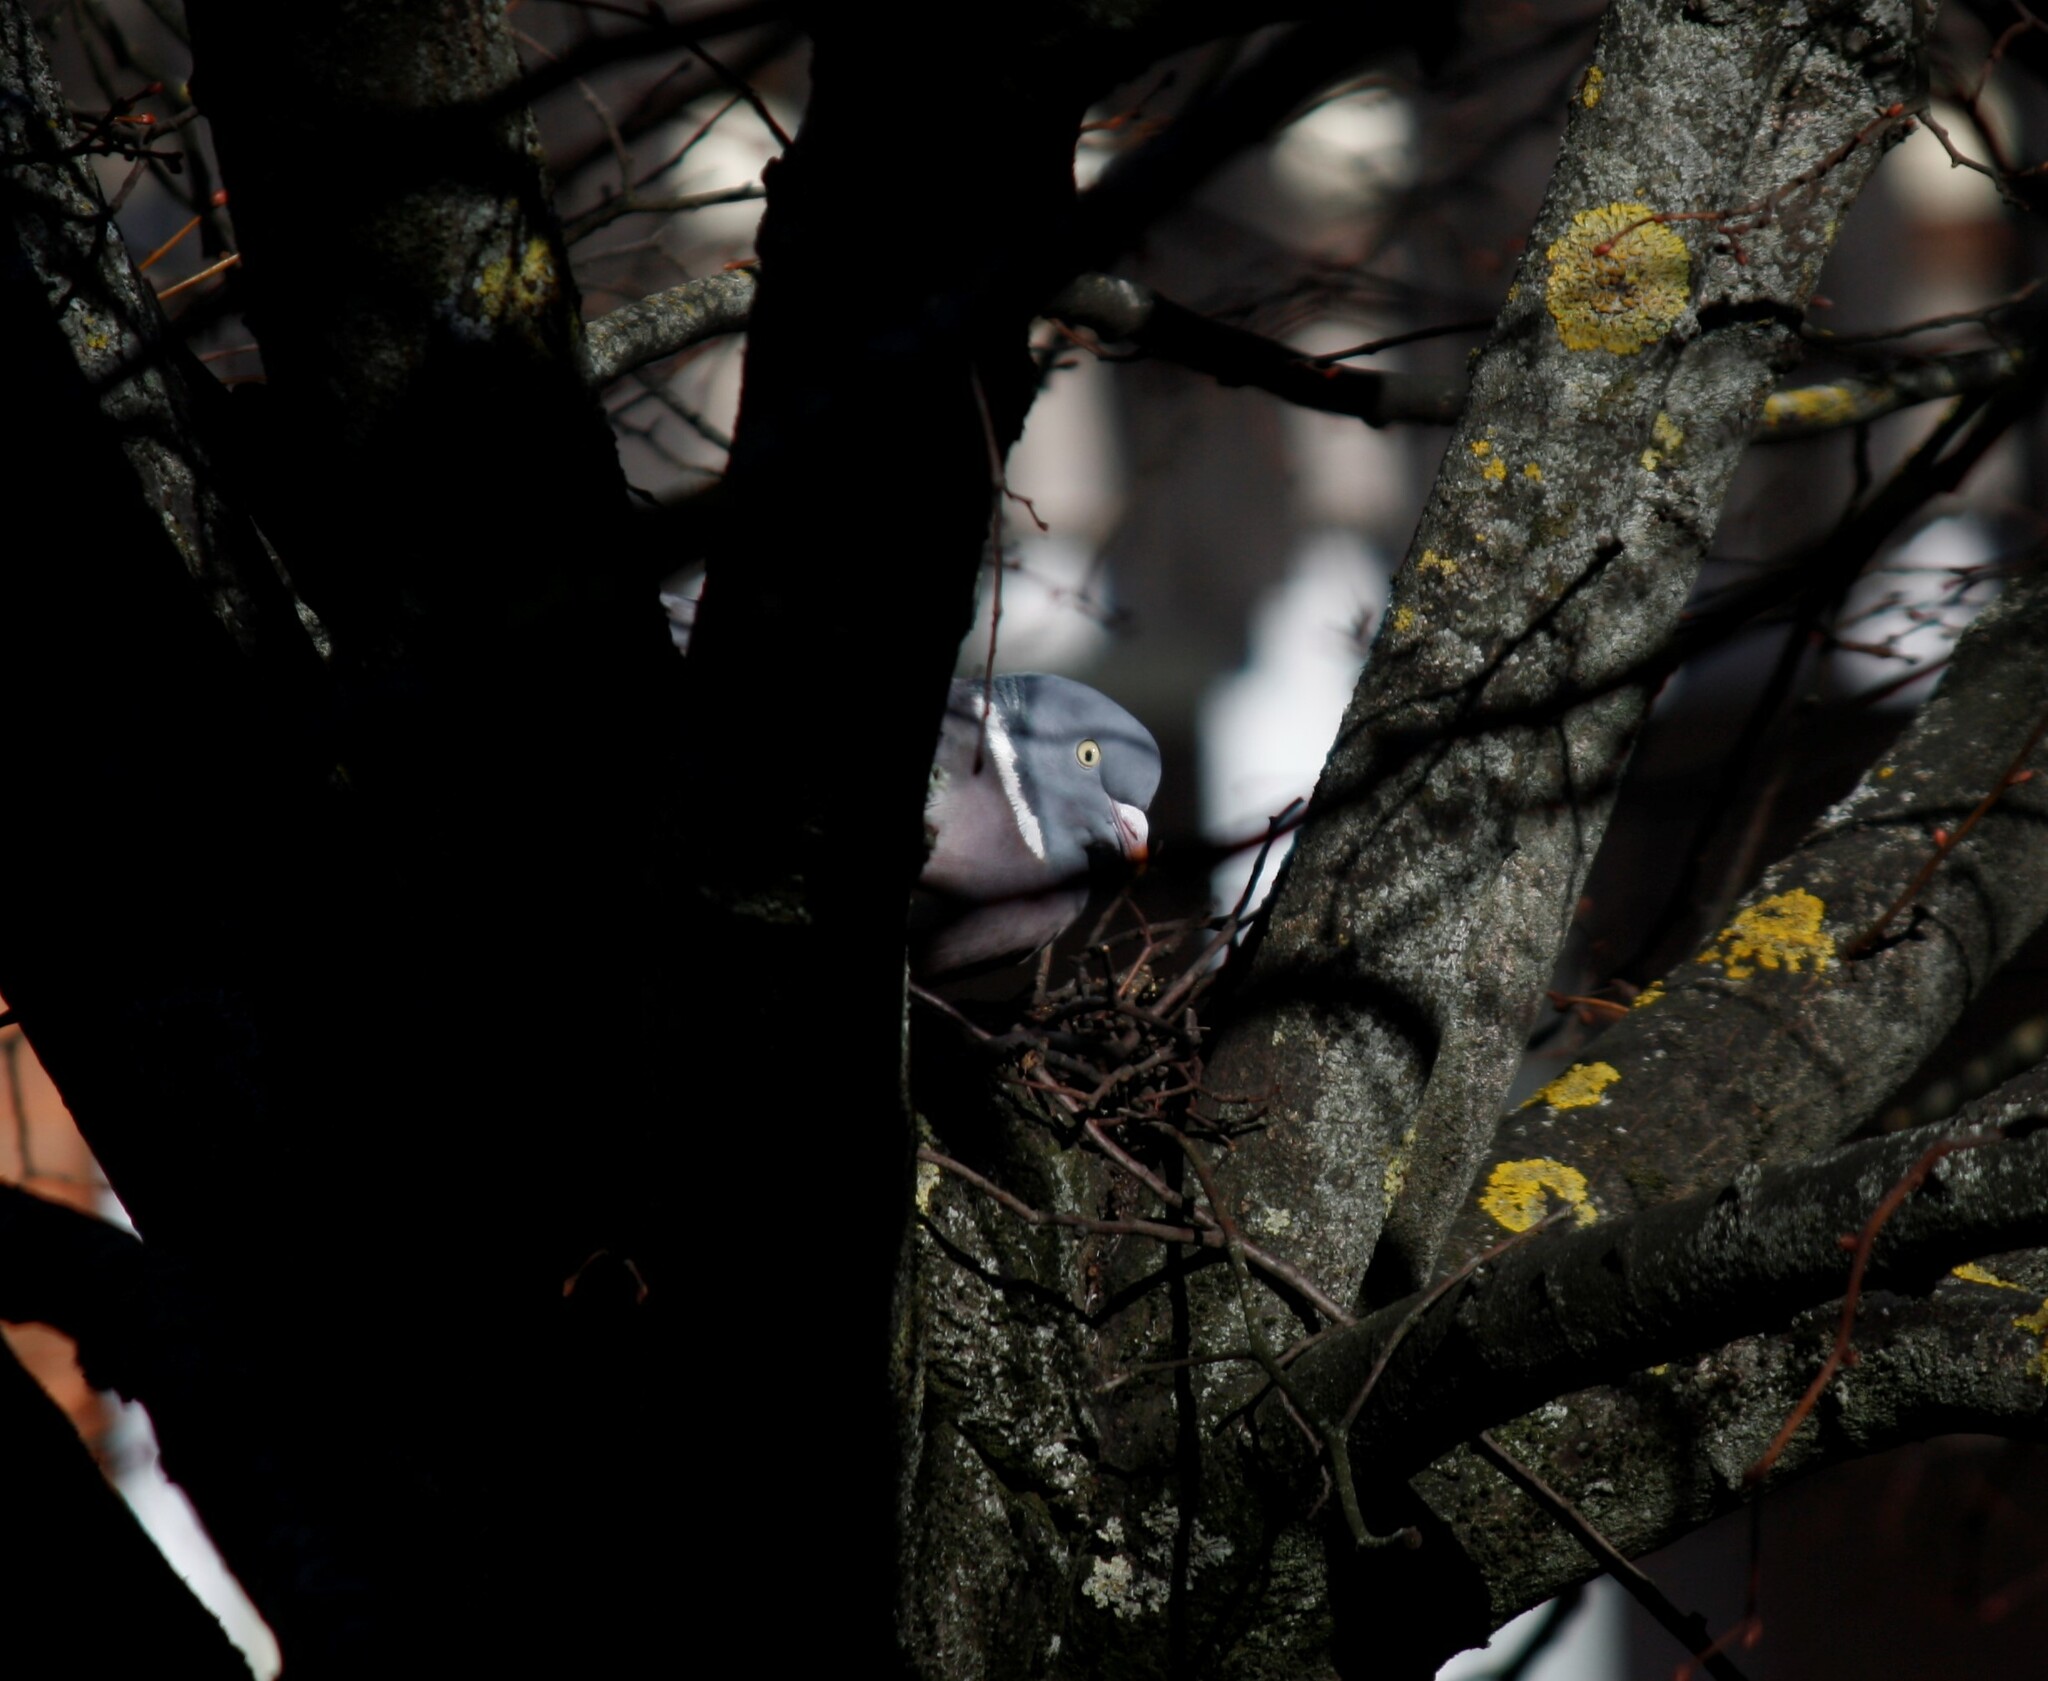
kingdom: Animalia
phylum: Chordata
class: Aves
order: Columbiformes
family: Columbidae
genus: Columba
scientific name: Columba palumbus
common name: Common wood pigeon
